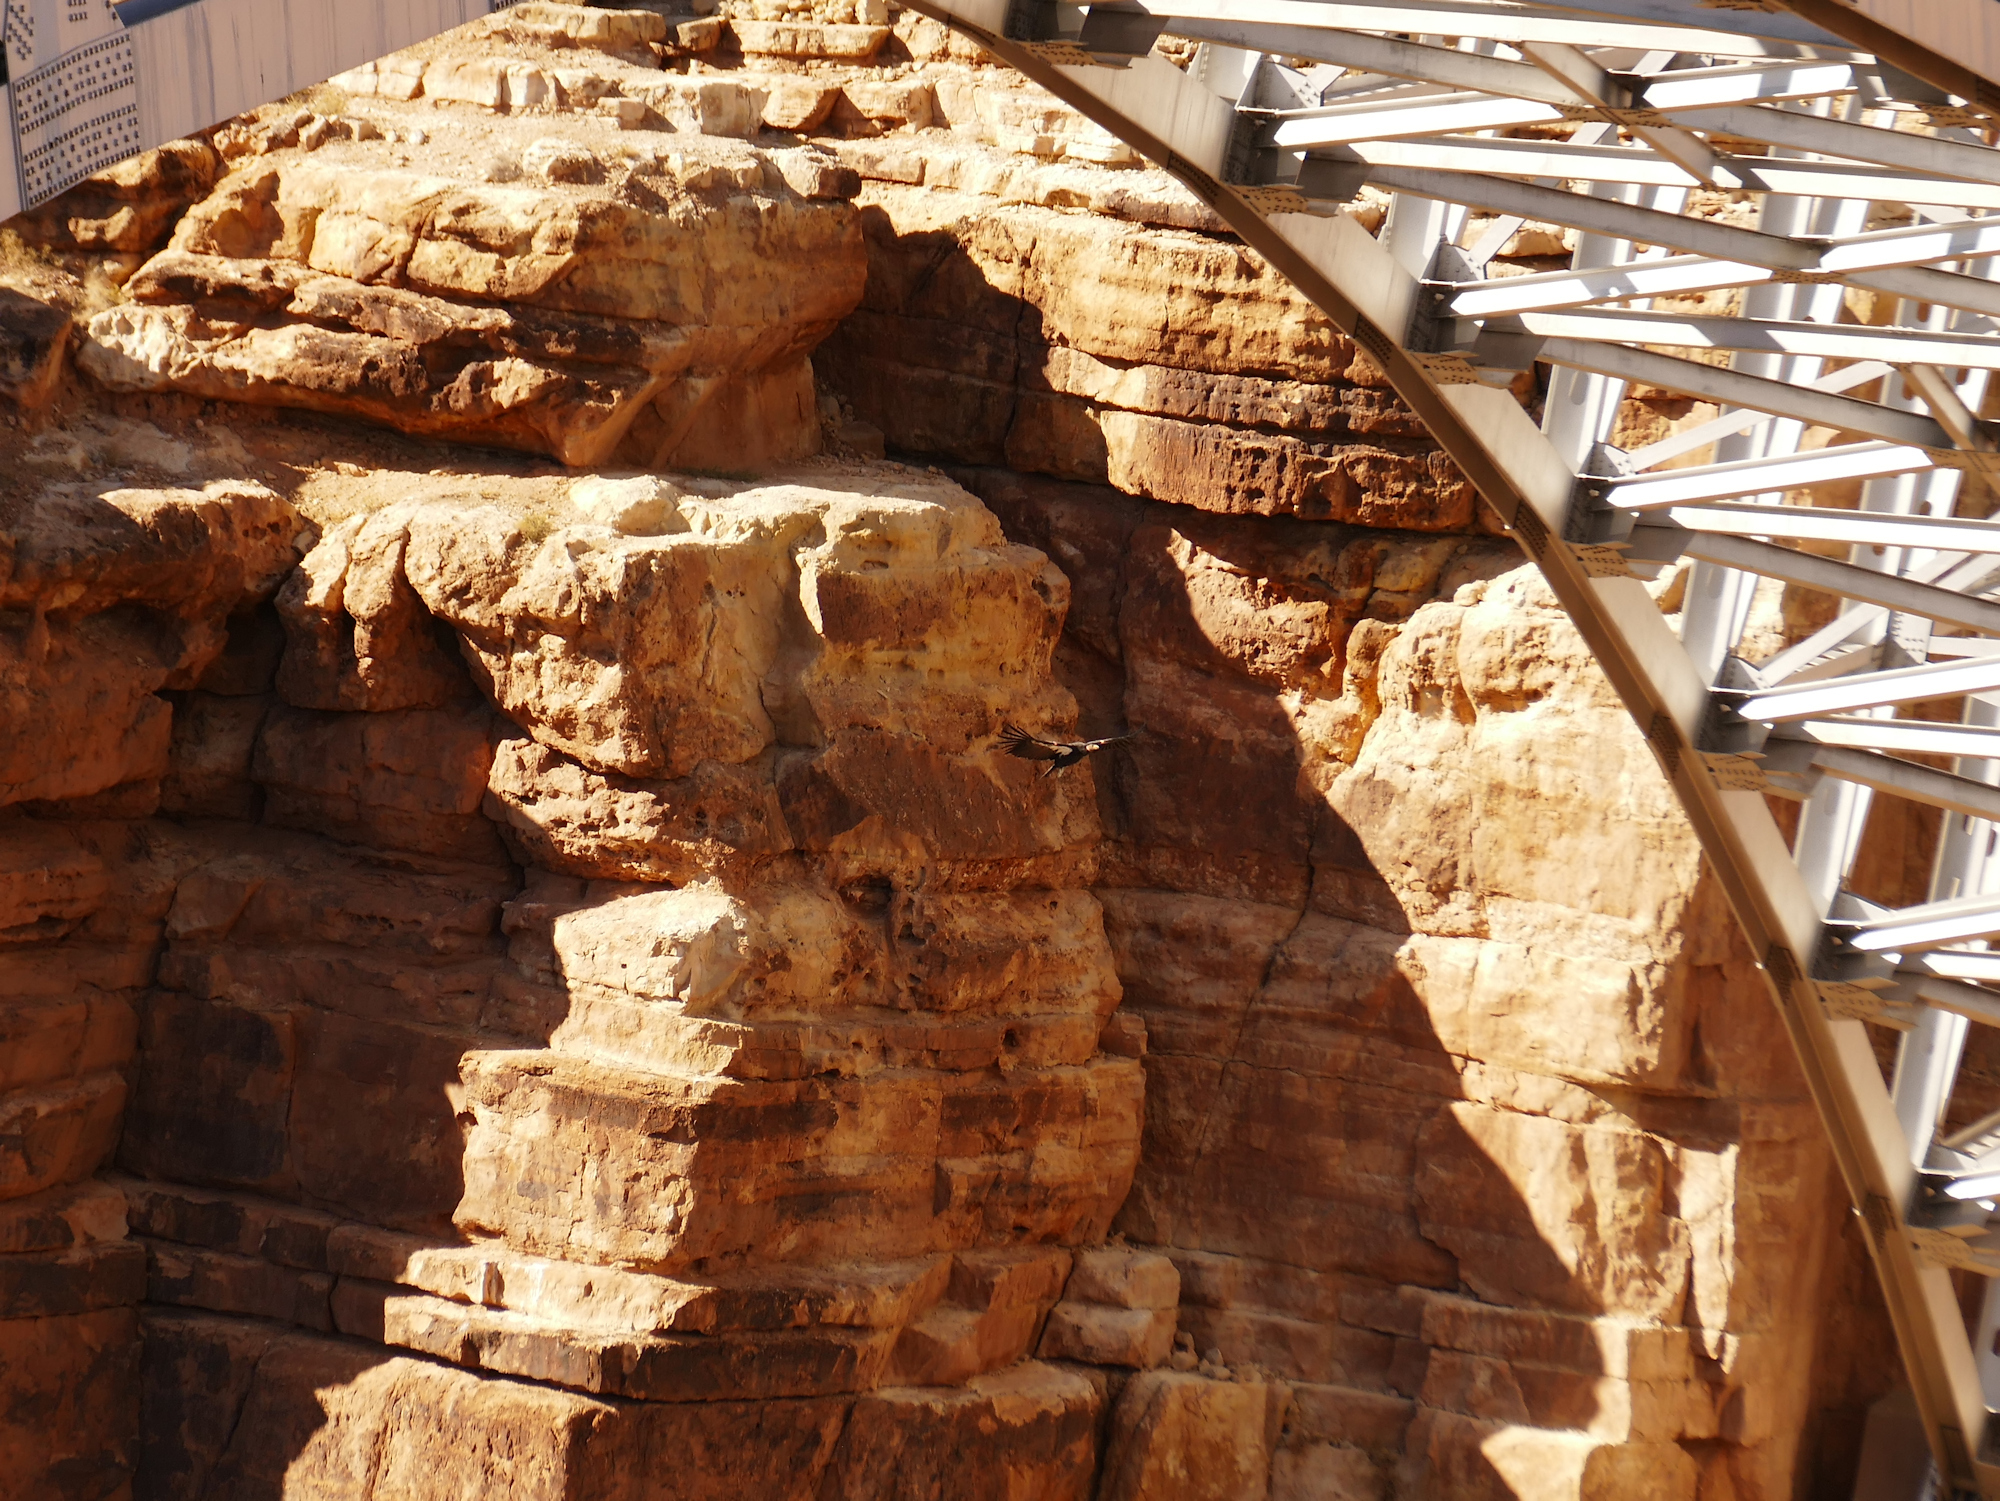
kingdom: Animalia
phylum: Chordata
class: Aves
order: Accipitriformes
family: Cathartidae
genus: Gymnogyps
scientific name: Gymnogyps californianus
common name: California condor
